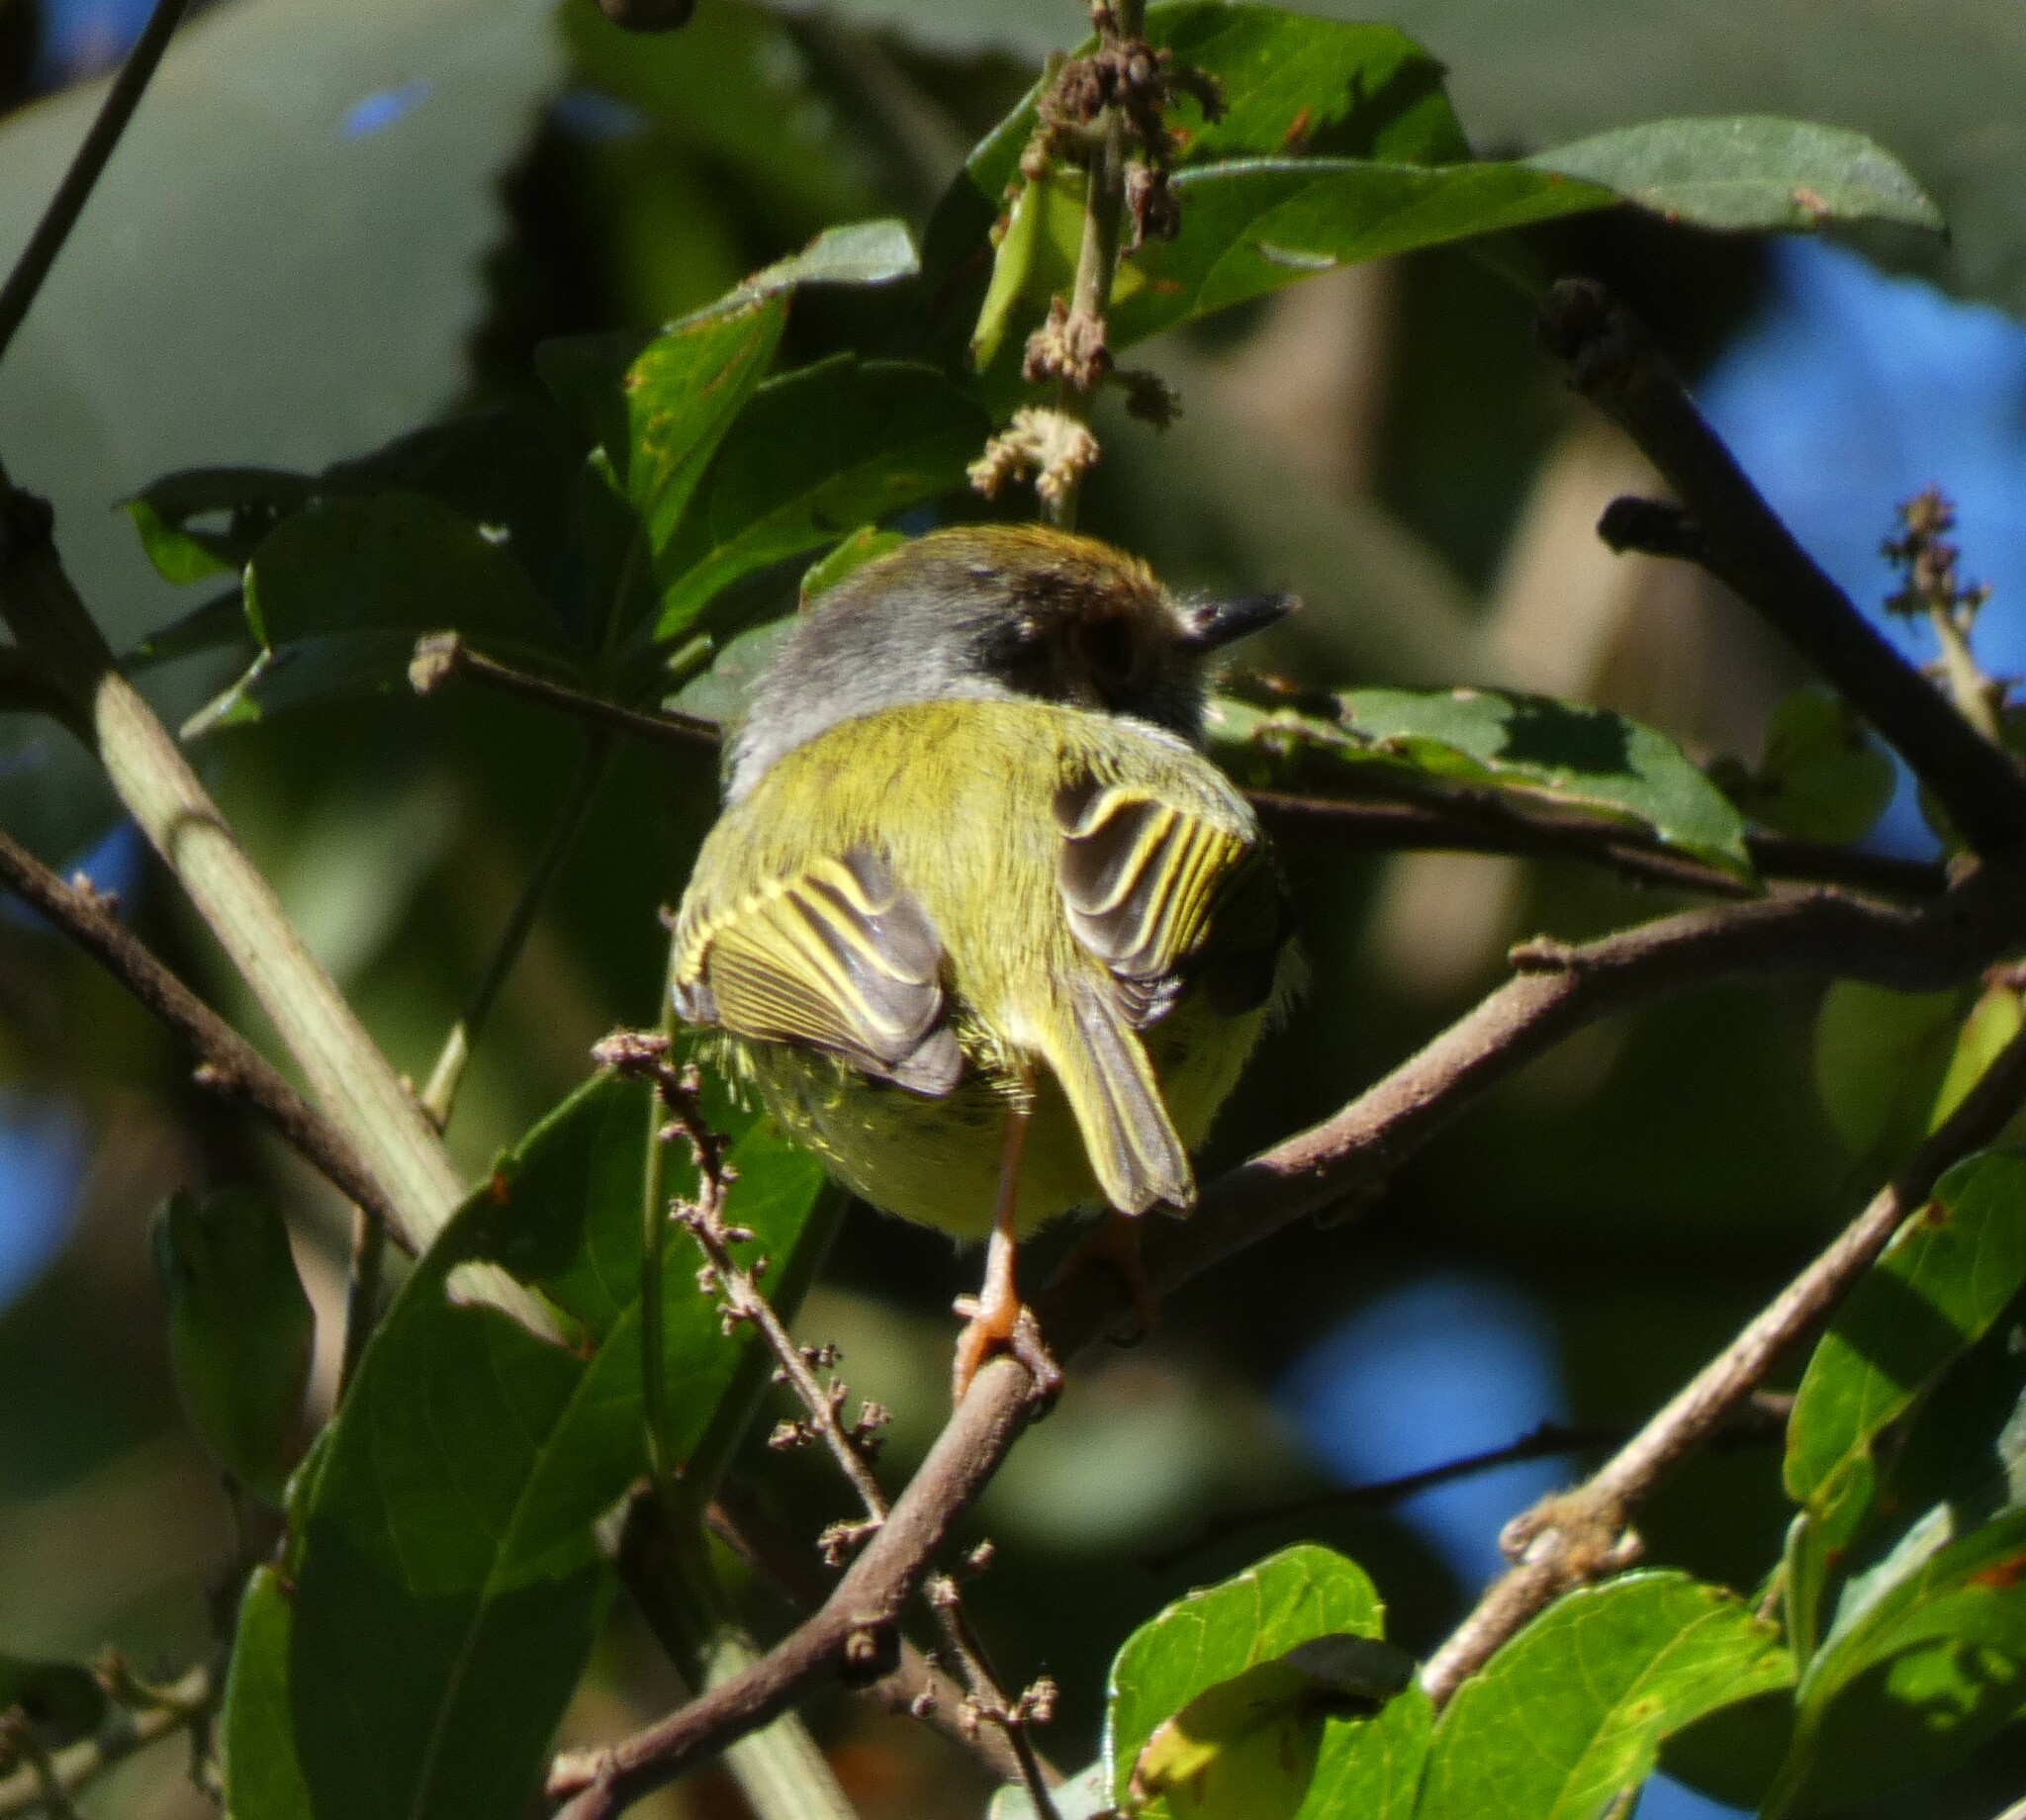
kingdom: Animalia
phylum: Chordata
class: Aves
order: Passeriformes
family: Tyrannidae
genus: Myiornis
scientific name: Myiornis auricularis
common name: Eared pygmy tyrant
